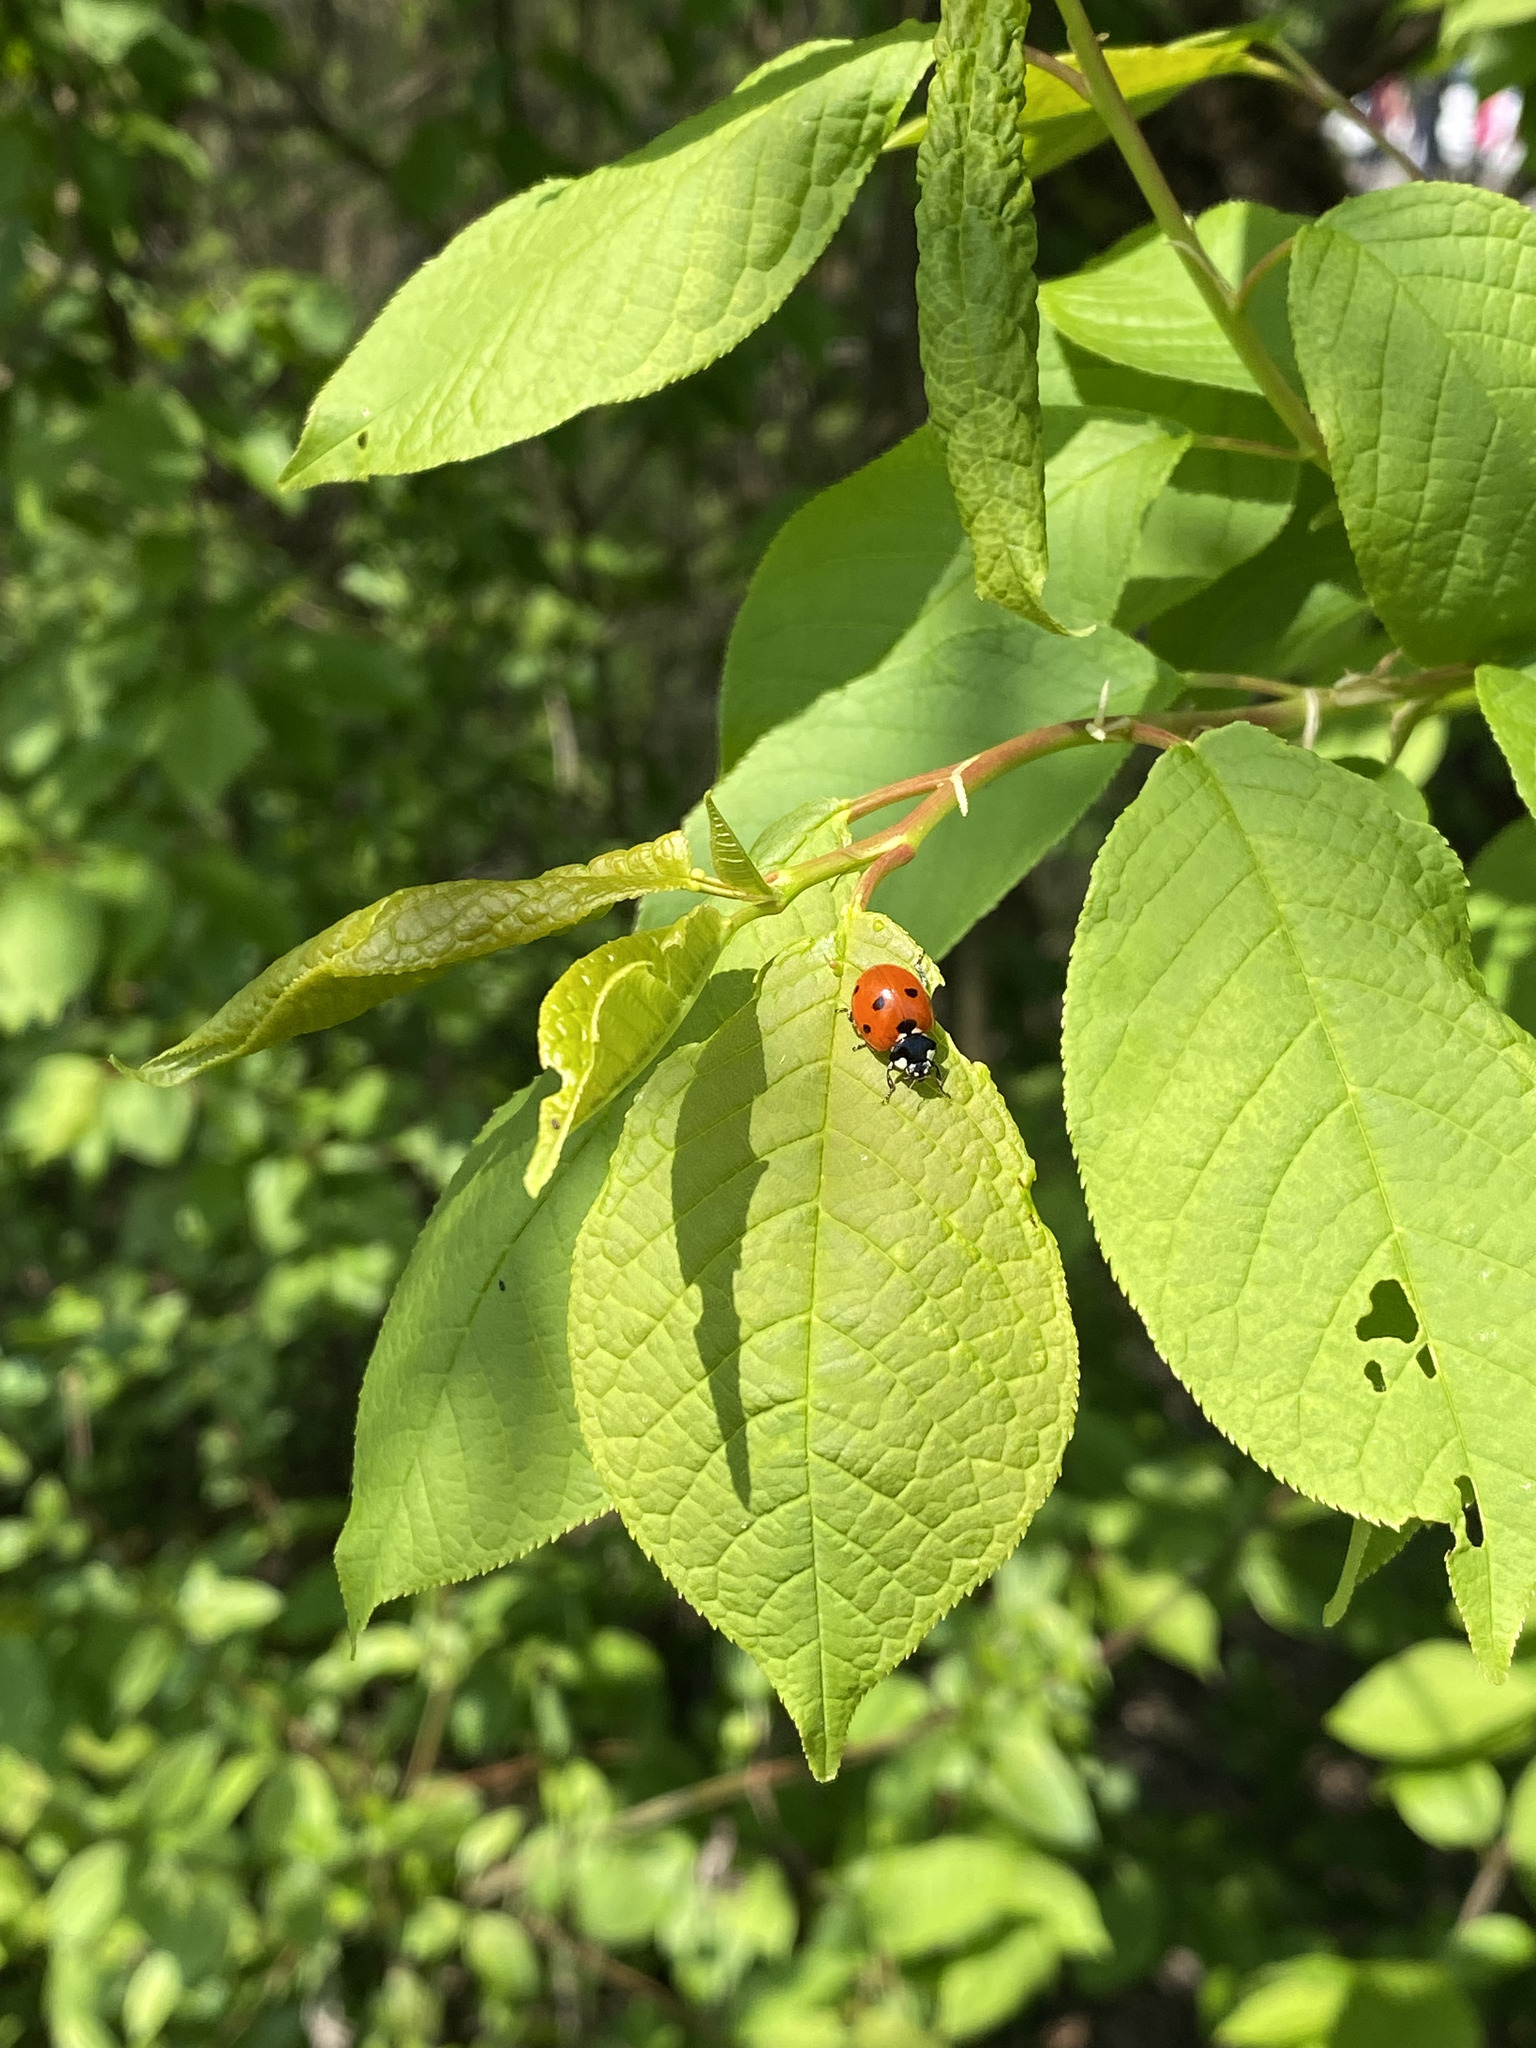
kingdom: Plantae
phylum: Tracheophyta
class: Magnoliopsida
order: Rosales
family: Rosaceae
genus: Prunus
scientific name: Prunus padus
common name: Bird cherry
